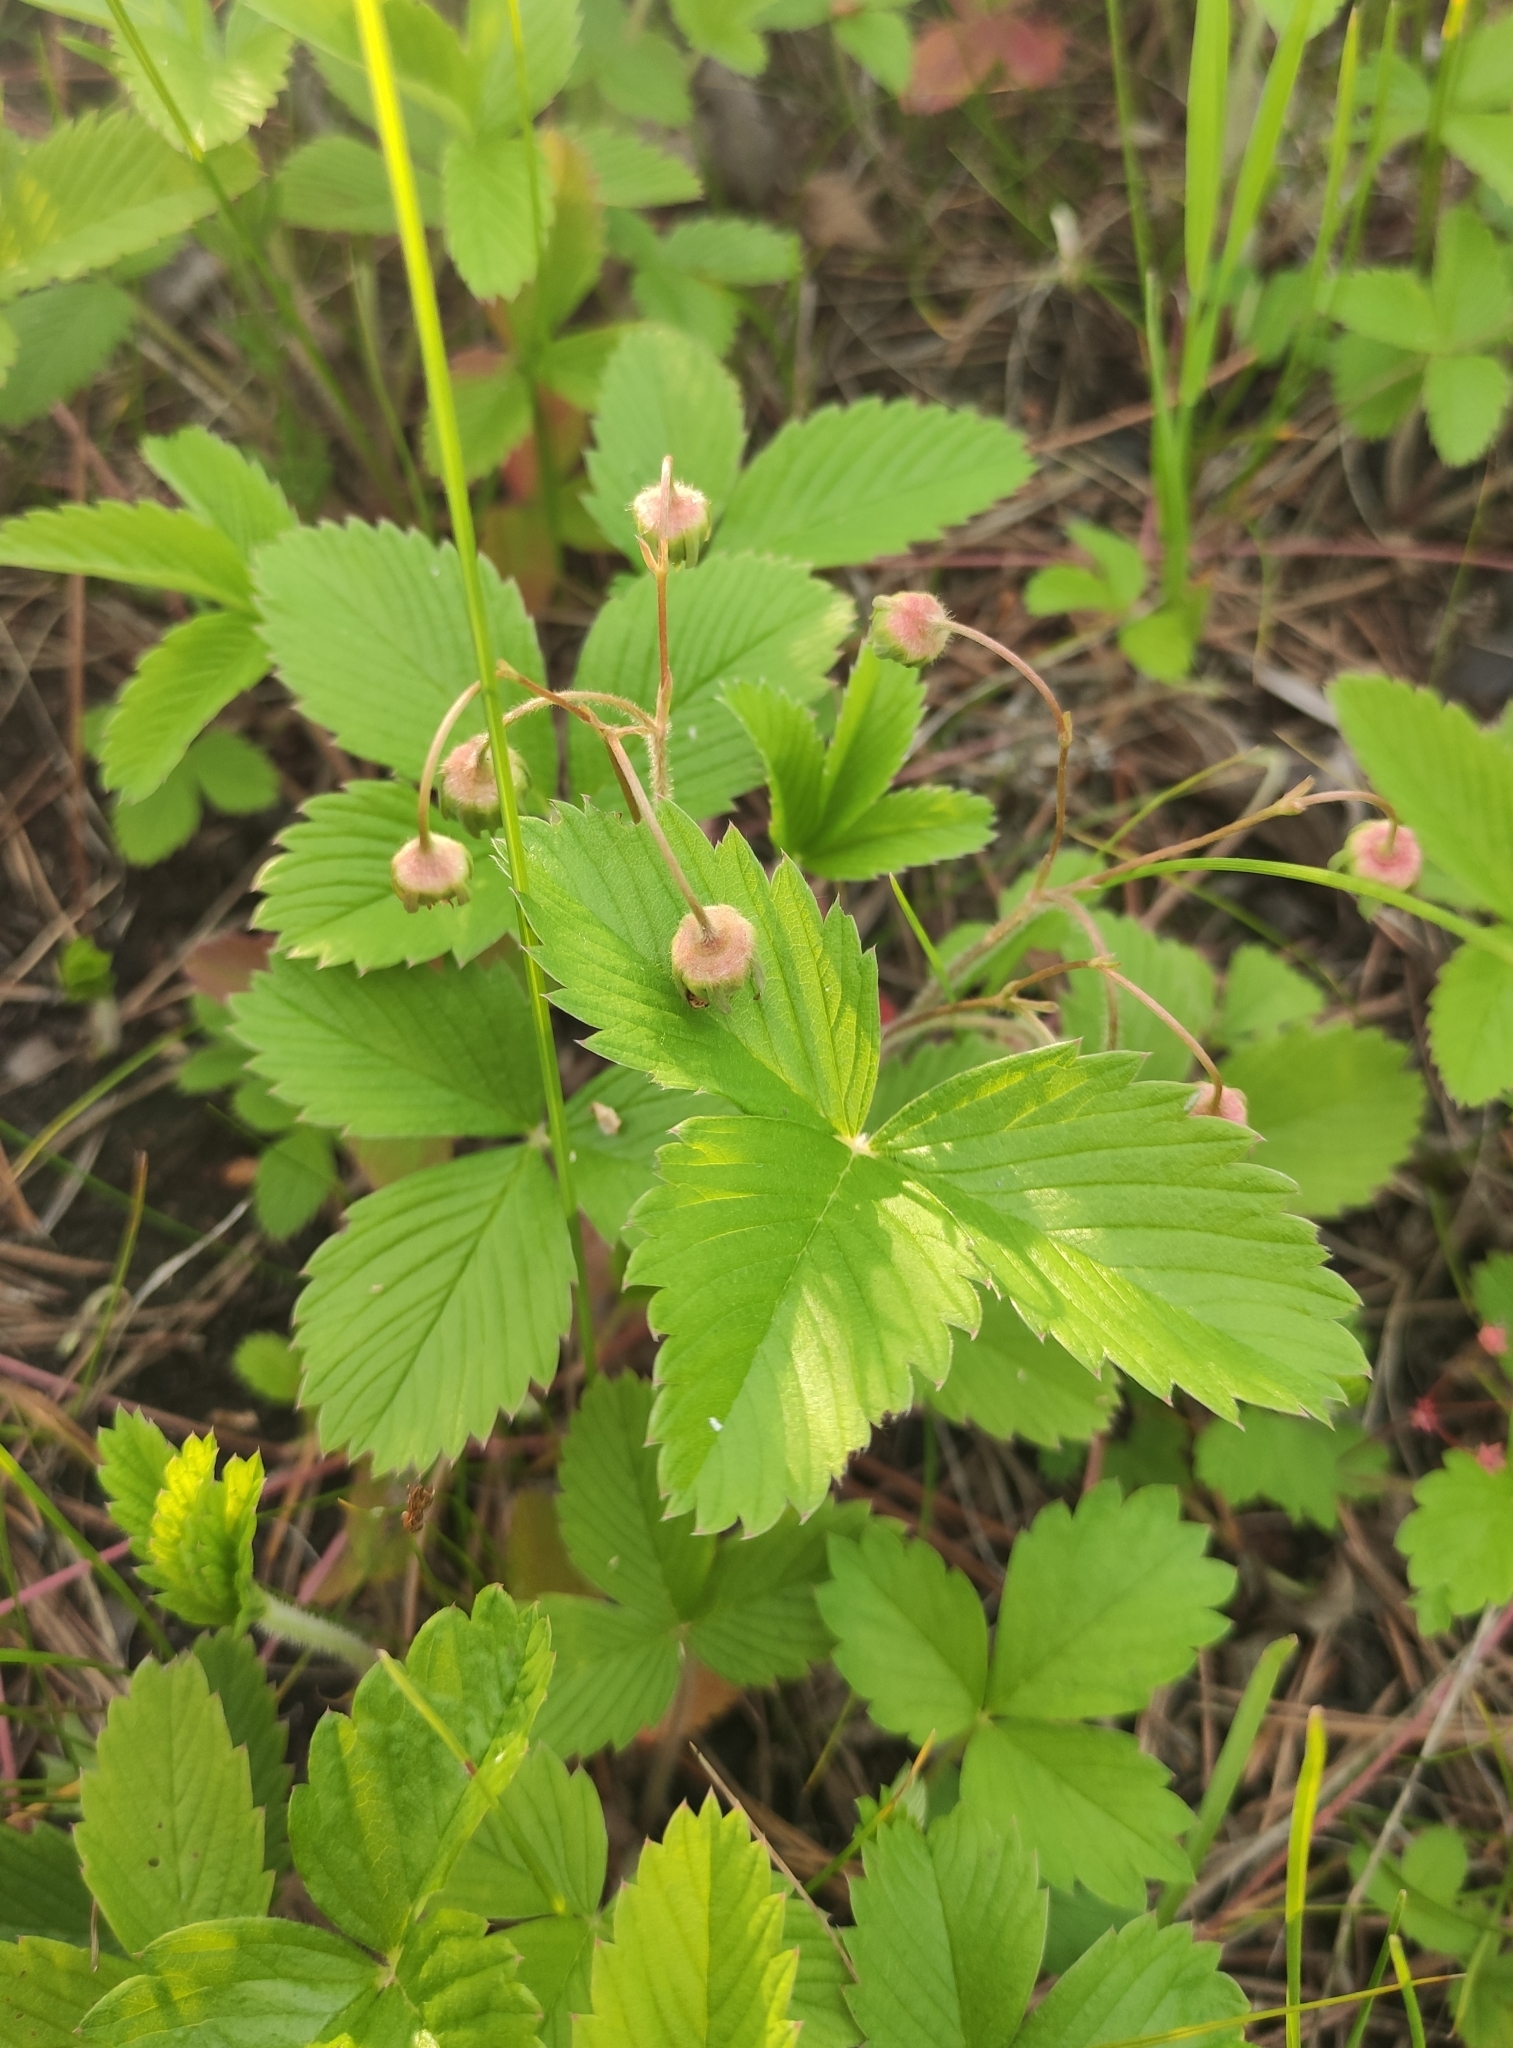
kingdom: Plantae
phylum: Tracheophyta
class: Magnoliopsida
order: Rosales
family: Rosaceae
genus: Fragaria
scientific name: Fragaria viridis
